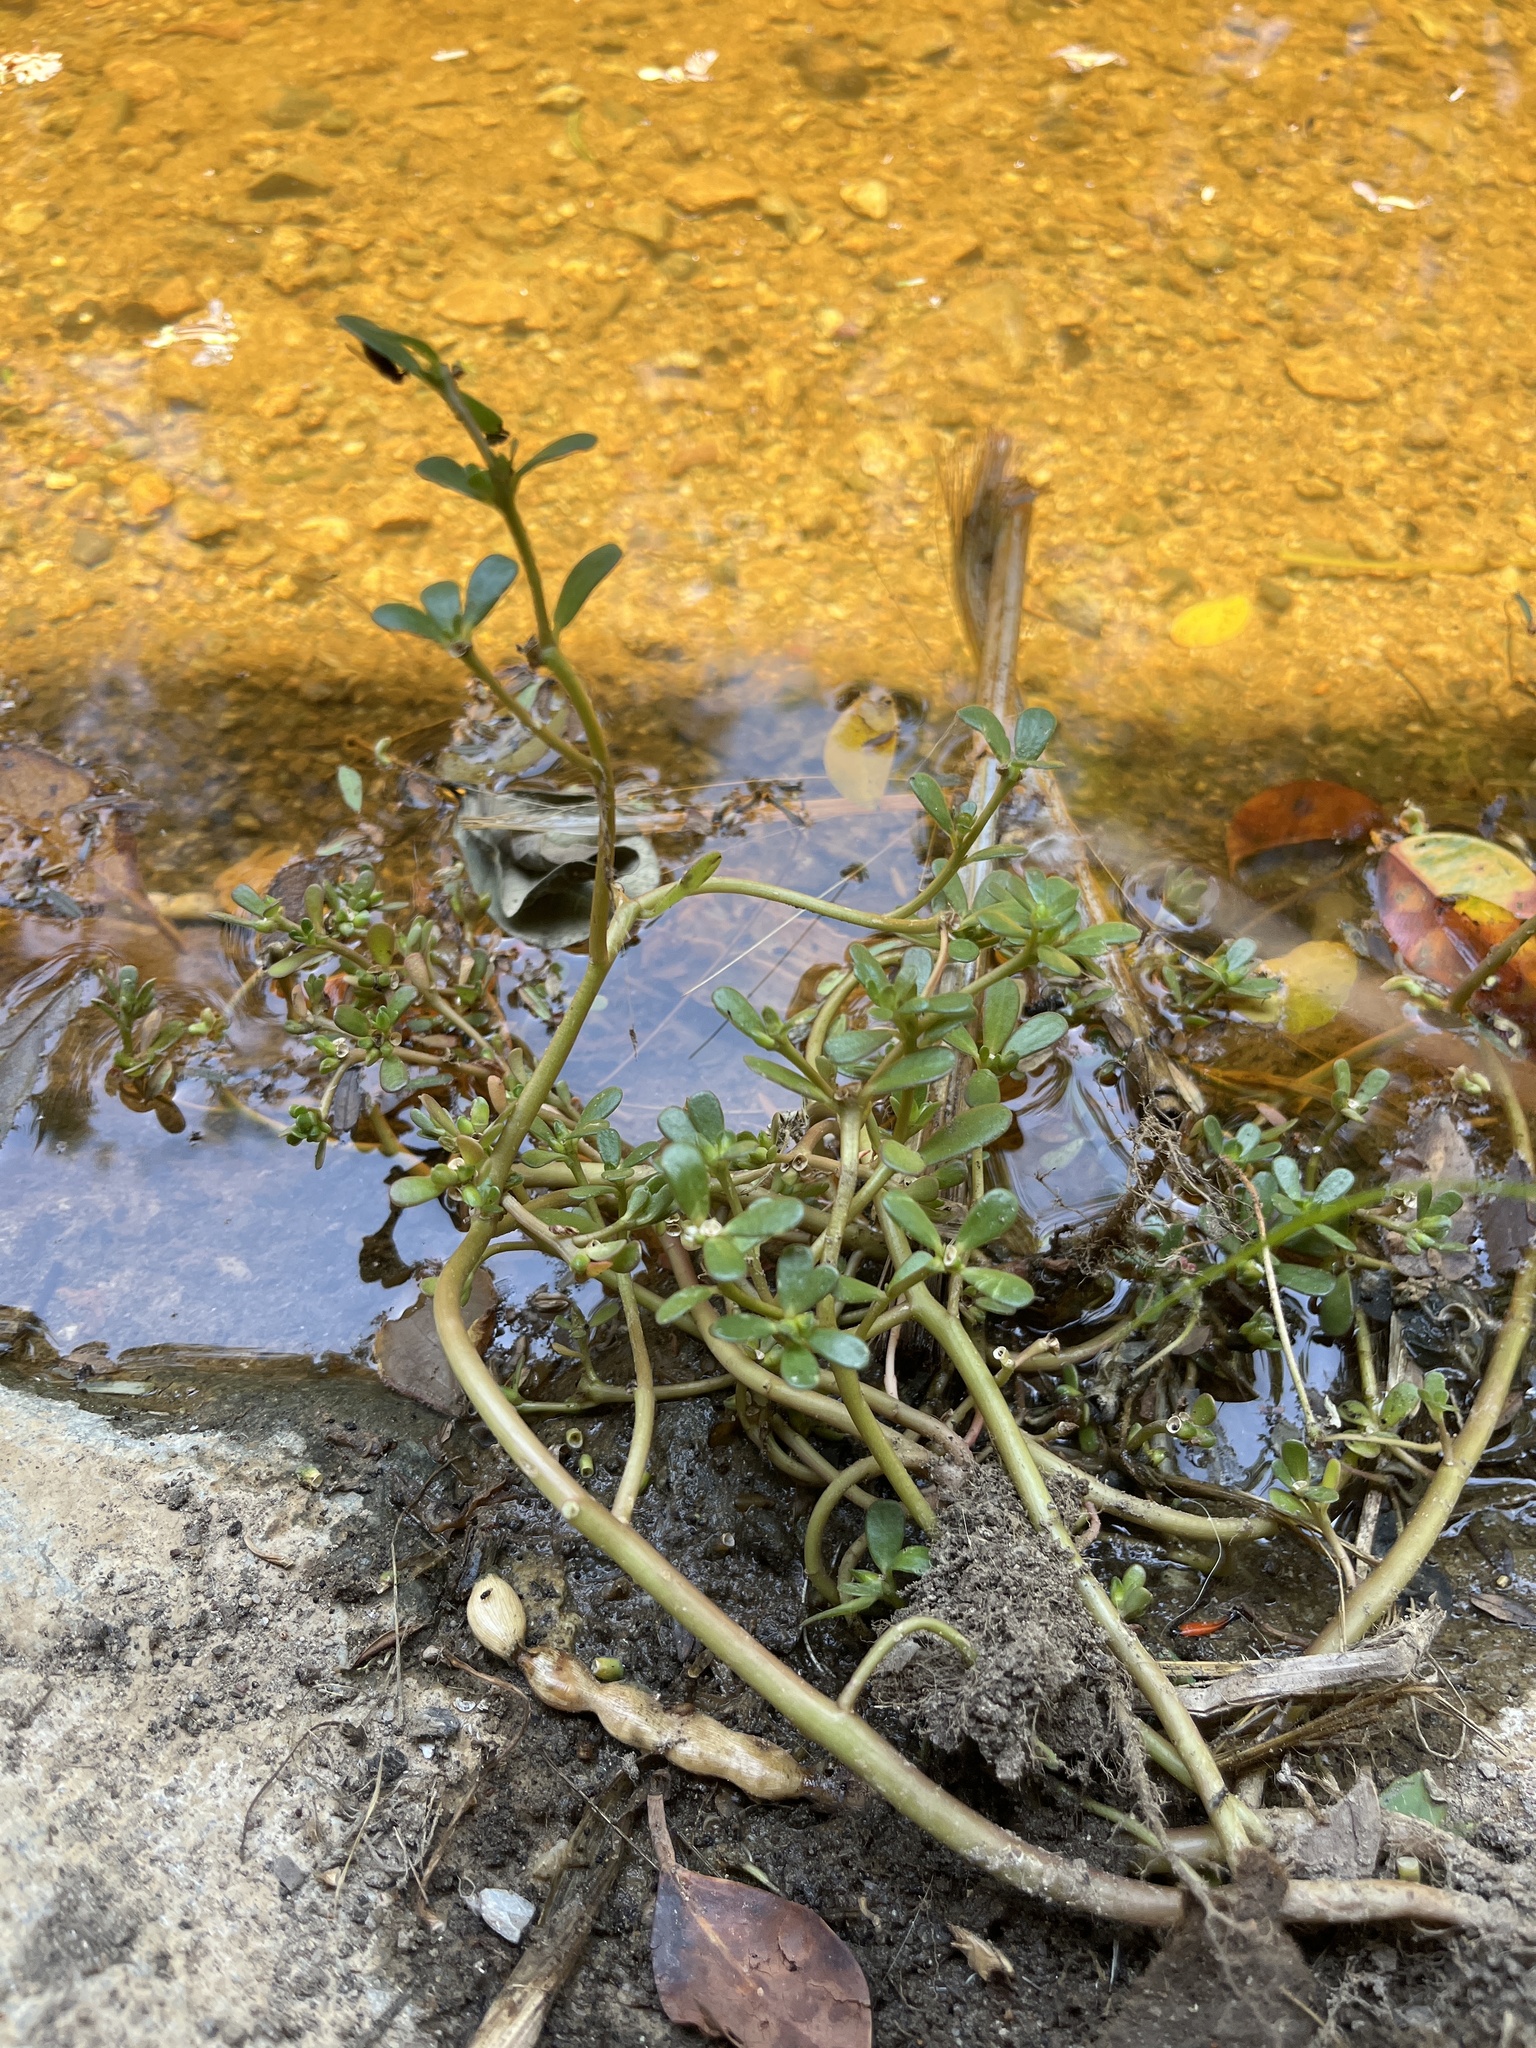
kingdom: Plantae
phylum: Tracheophyta
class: Magnoliopsida
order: Caryophyllales
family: Portulacaceae
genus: Portulaca
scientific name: Portulaca oleracea
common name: Common purslane
